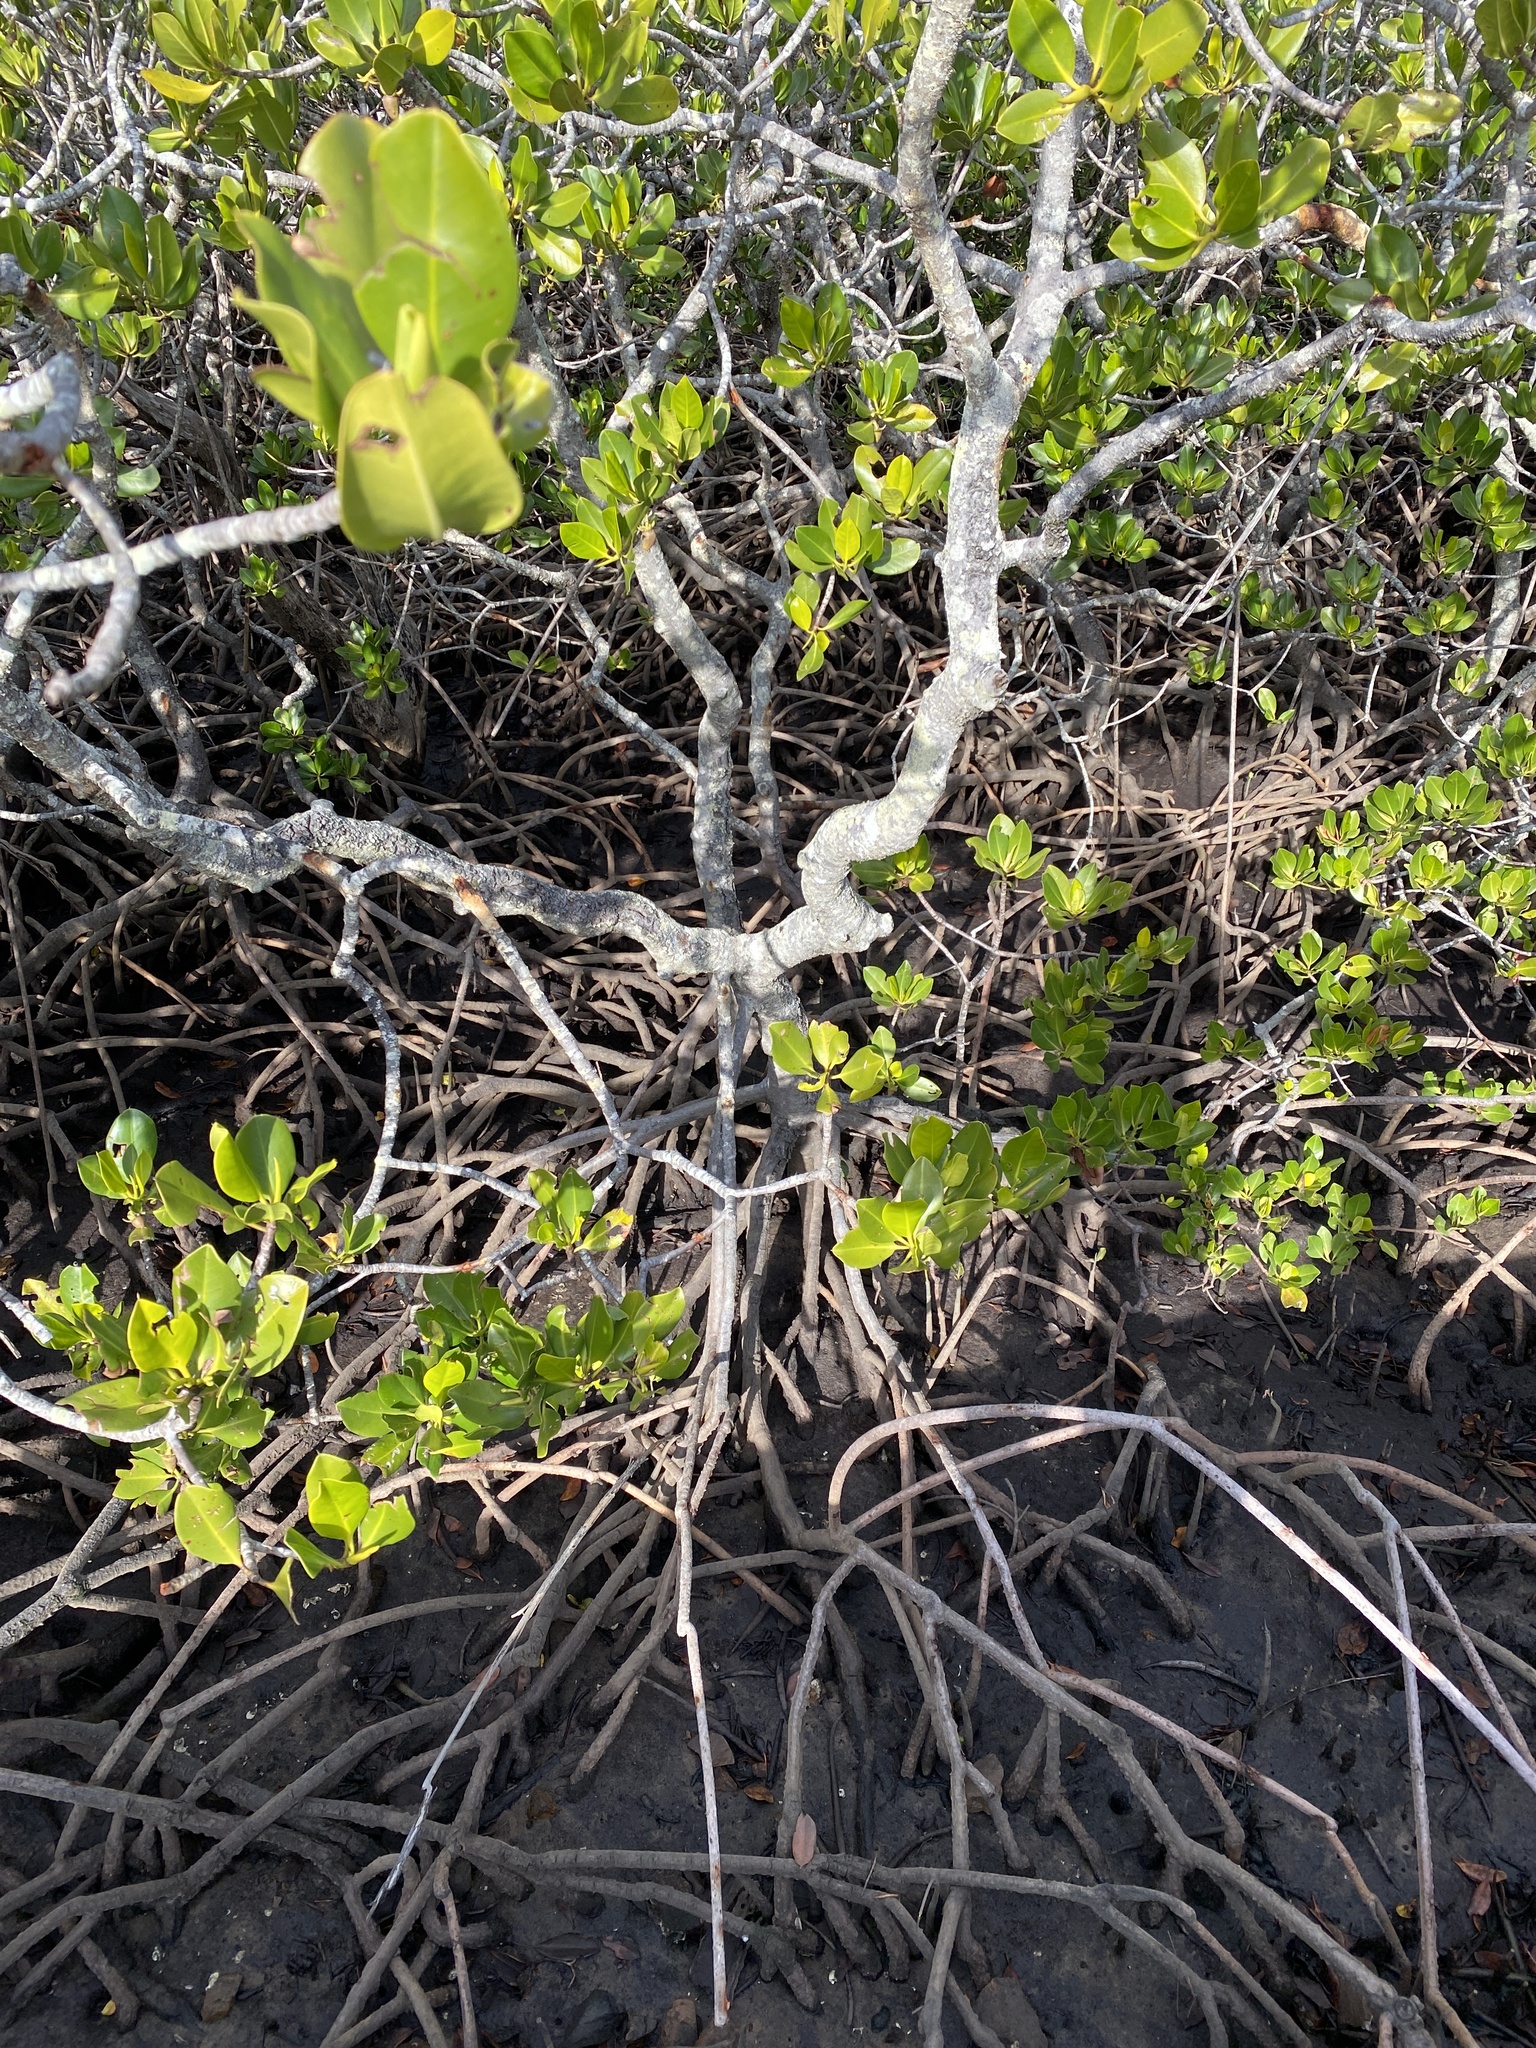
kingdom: Plantae
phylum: Tracheophyta
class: Magnoliopsida
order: Malpighiales
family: Rhizophoraceae
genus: Rhizophora
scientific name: Rhizophora stylosa
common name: Red mangrove
